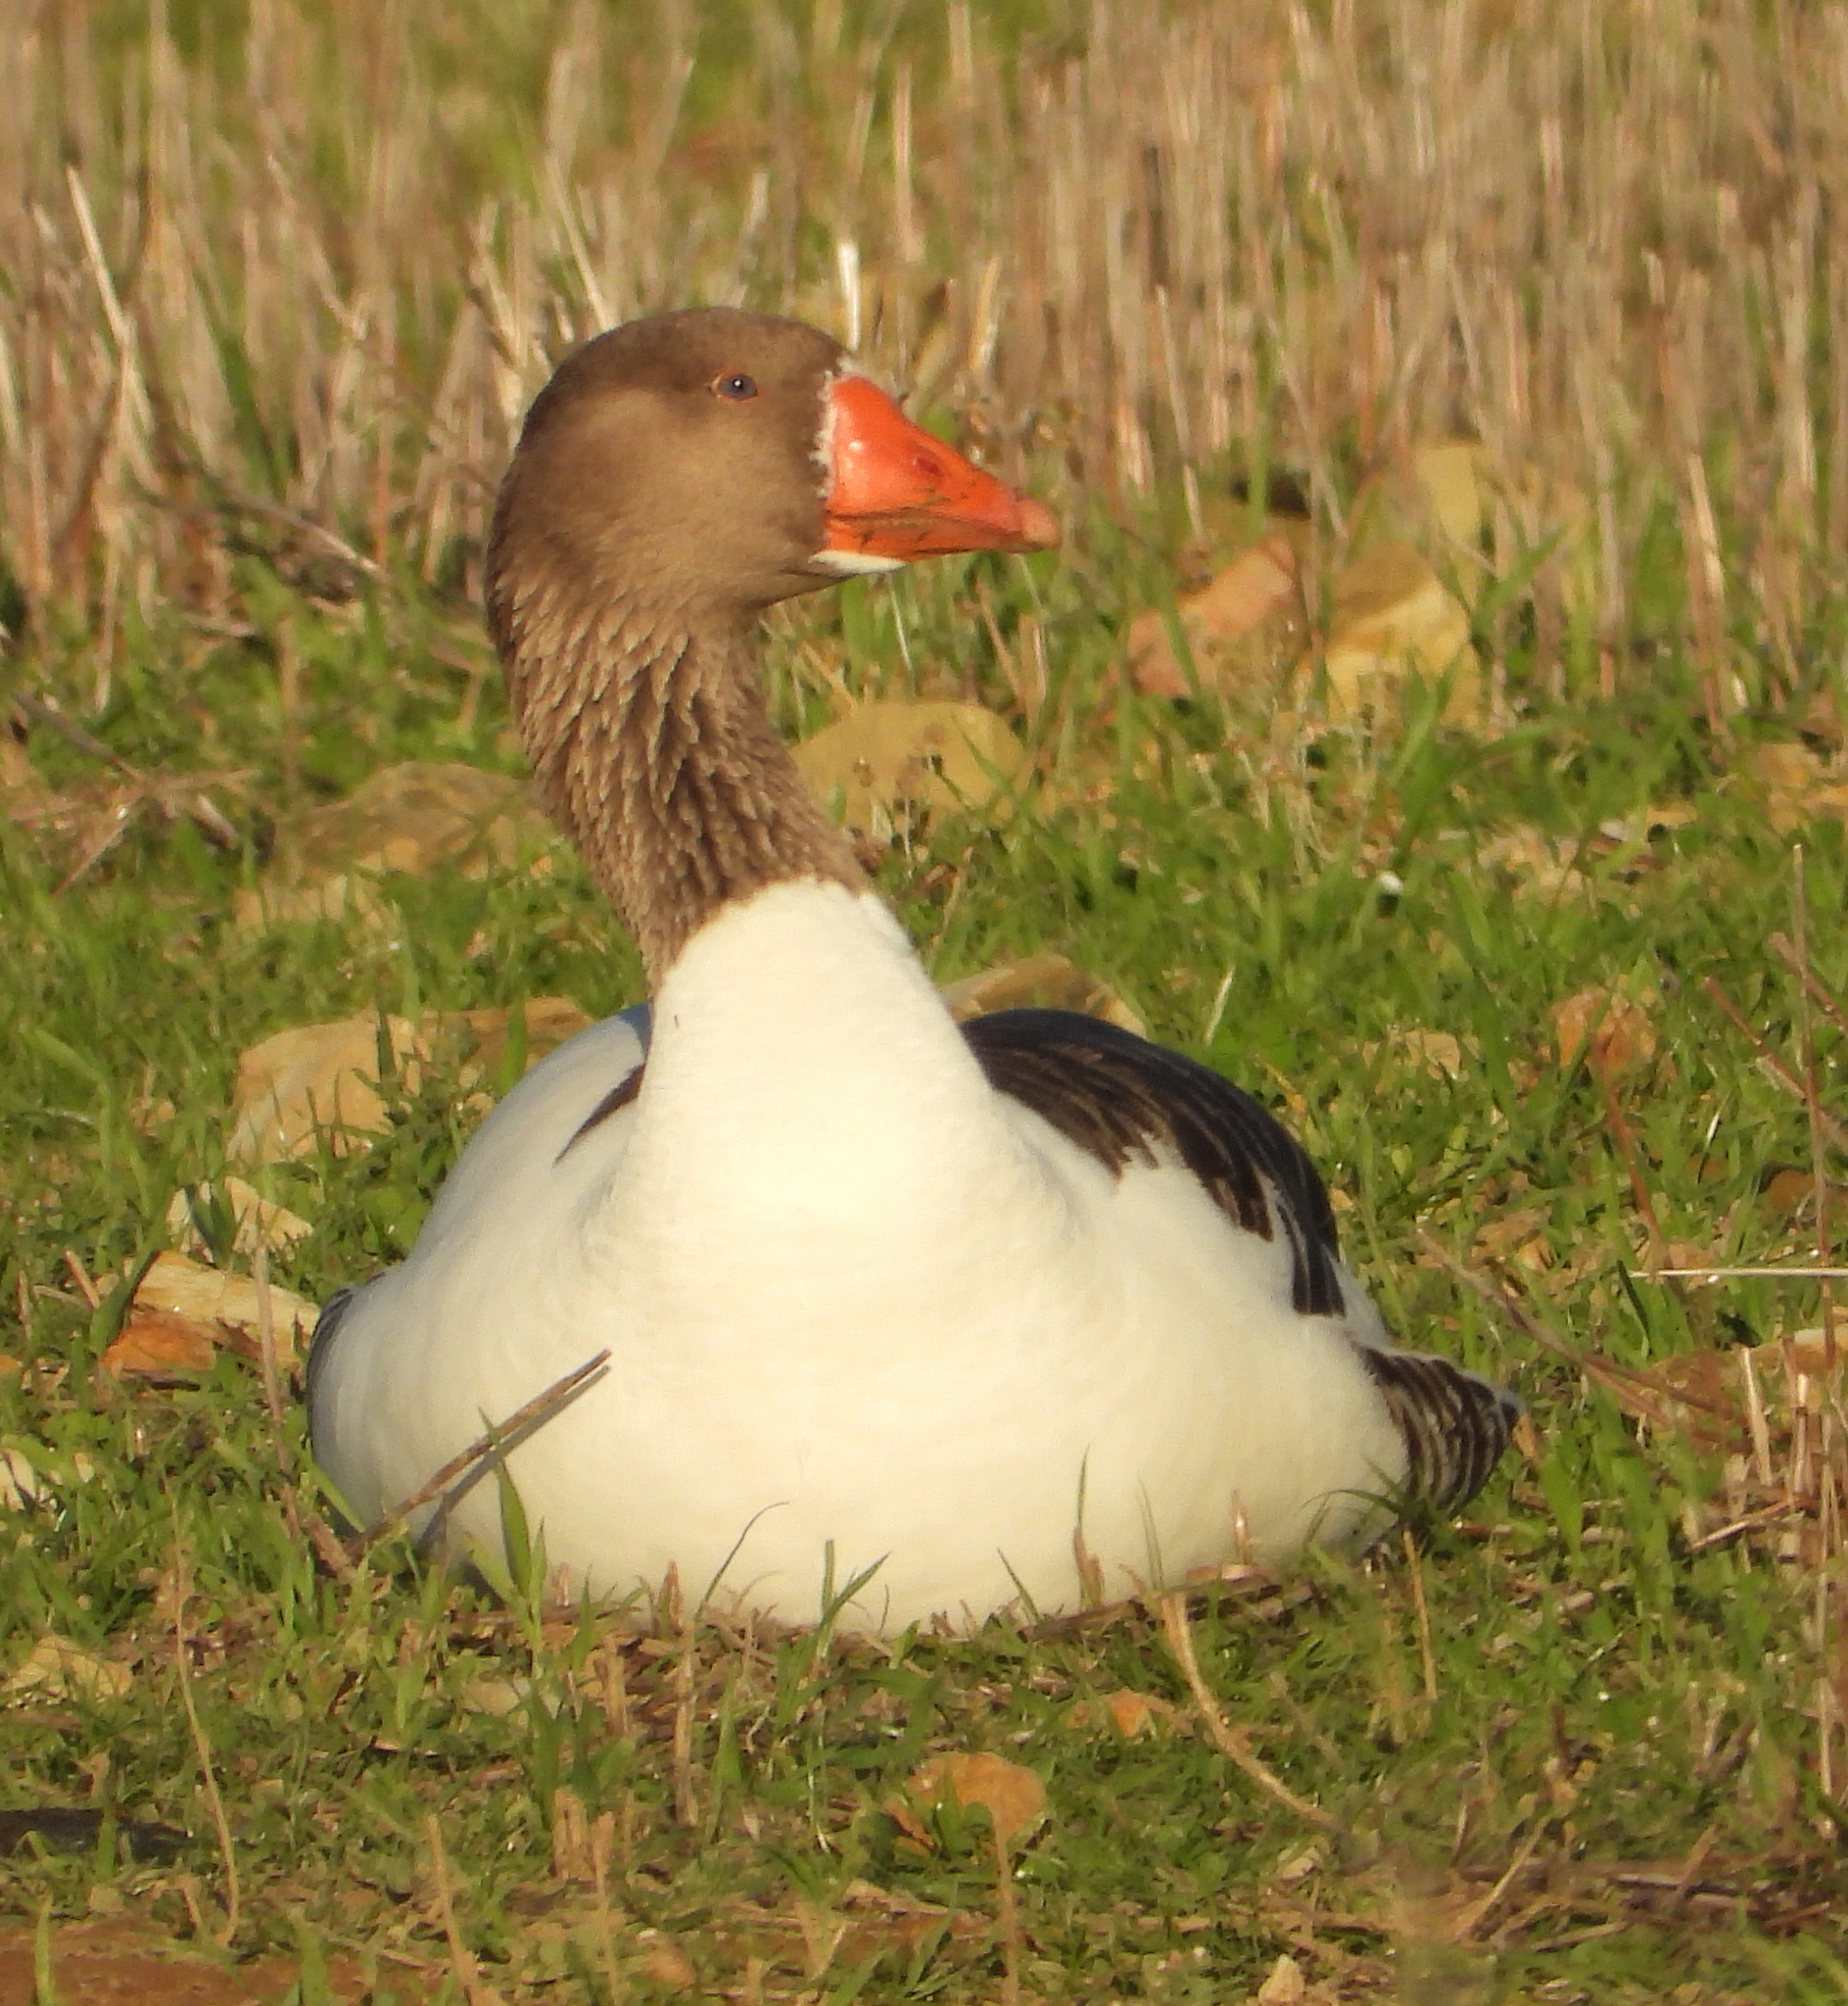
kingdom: Animalia
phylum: Chordata
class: Aves
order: Anseriformes
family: Anatidae
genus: Anser
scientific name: Anser anser
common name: Greylag goose
